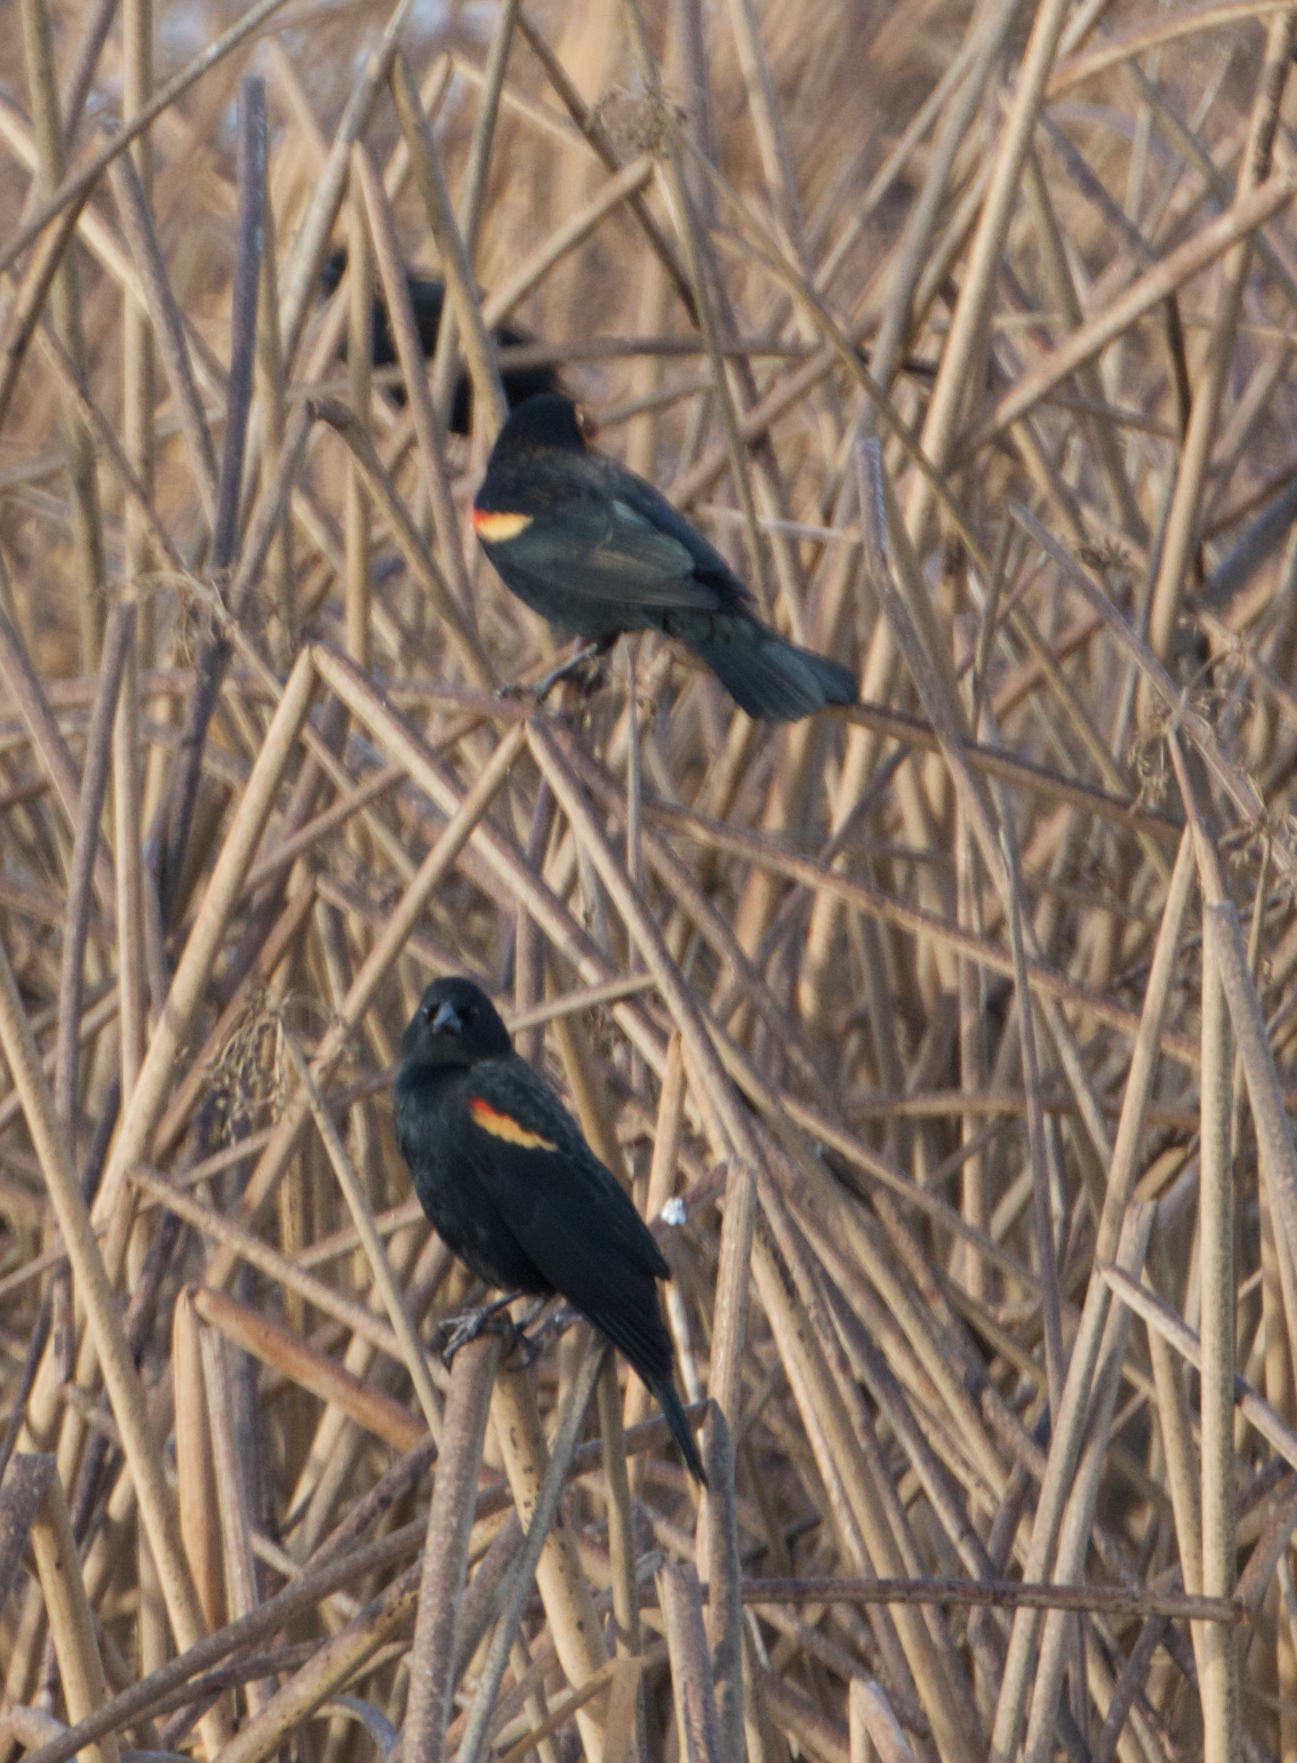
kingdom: Animalia
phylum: Chordata
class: Aves
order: Passeriformes
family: Icteridae
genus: Agelaius
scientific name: Agelaius phoeniceus
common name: Red-winged blackbird
